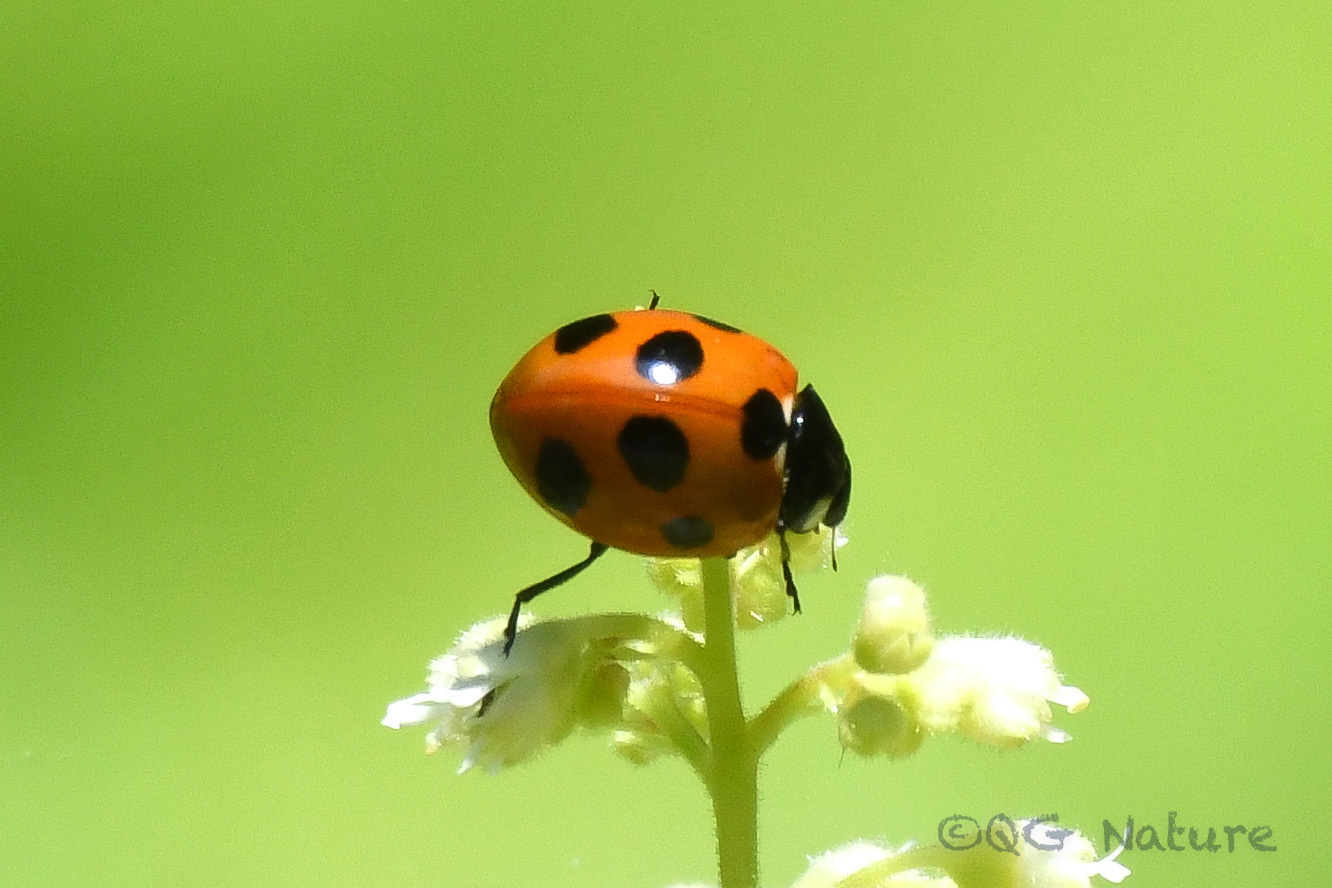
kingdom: Animalia
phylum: Arthropoda
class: Insecta
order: Coleoptera
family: Coccinellidae
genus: Coccinella
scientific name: Coccinella septempunctata
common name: Sevenspotted lady beetle
